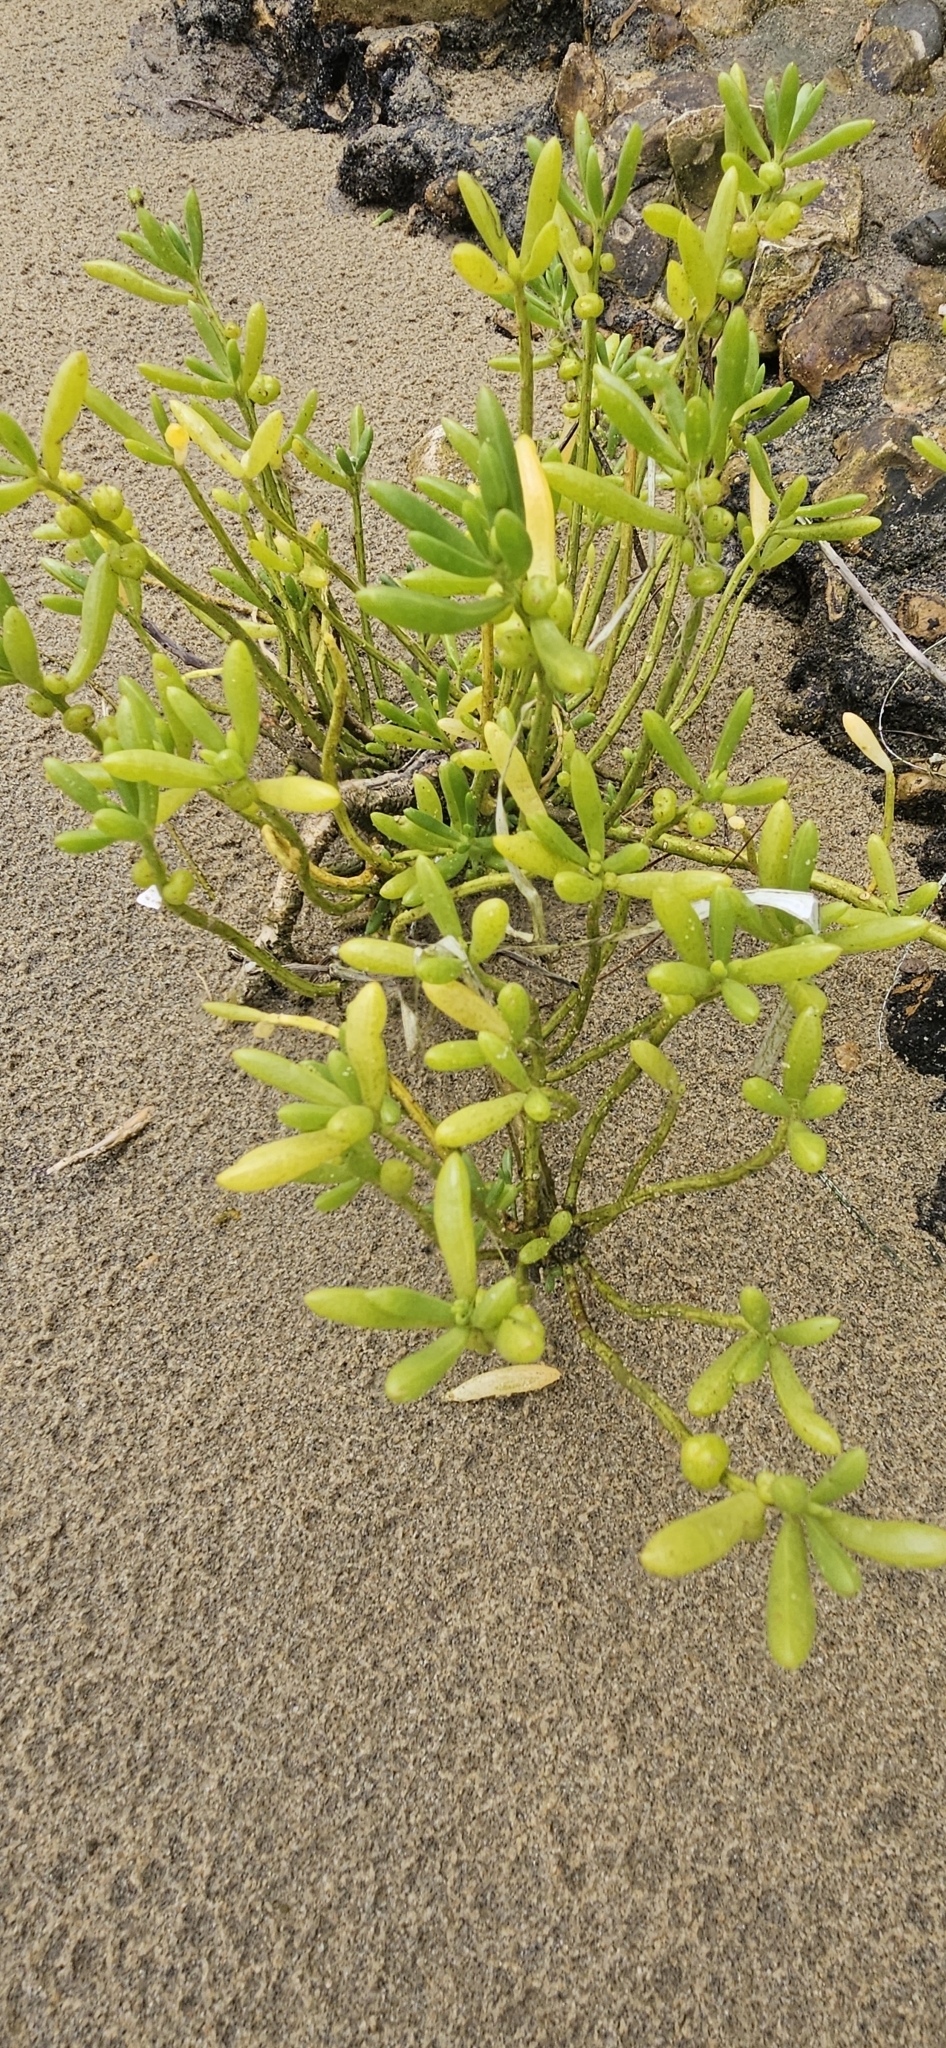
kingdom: Plantae
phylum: Tracheophyta
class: Magnoliopsida
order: Brassicales
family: Bataceae
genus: Batis
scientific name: Batis maritima
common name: Turtleweed
